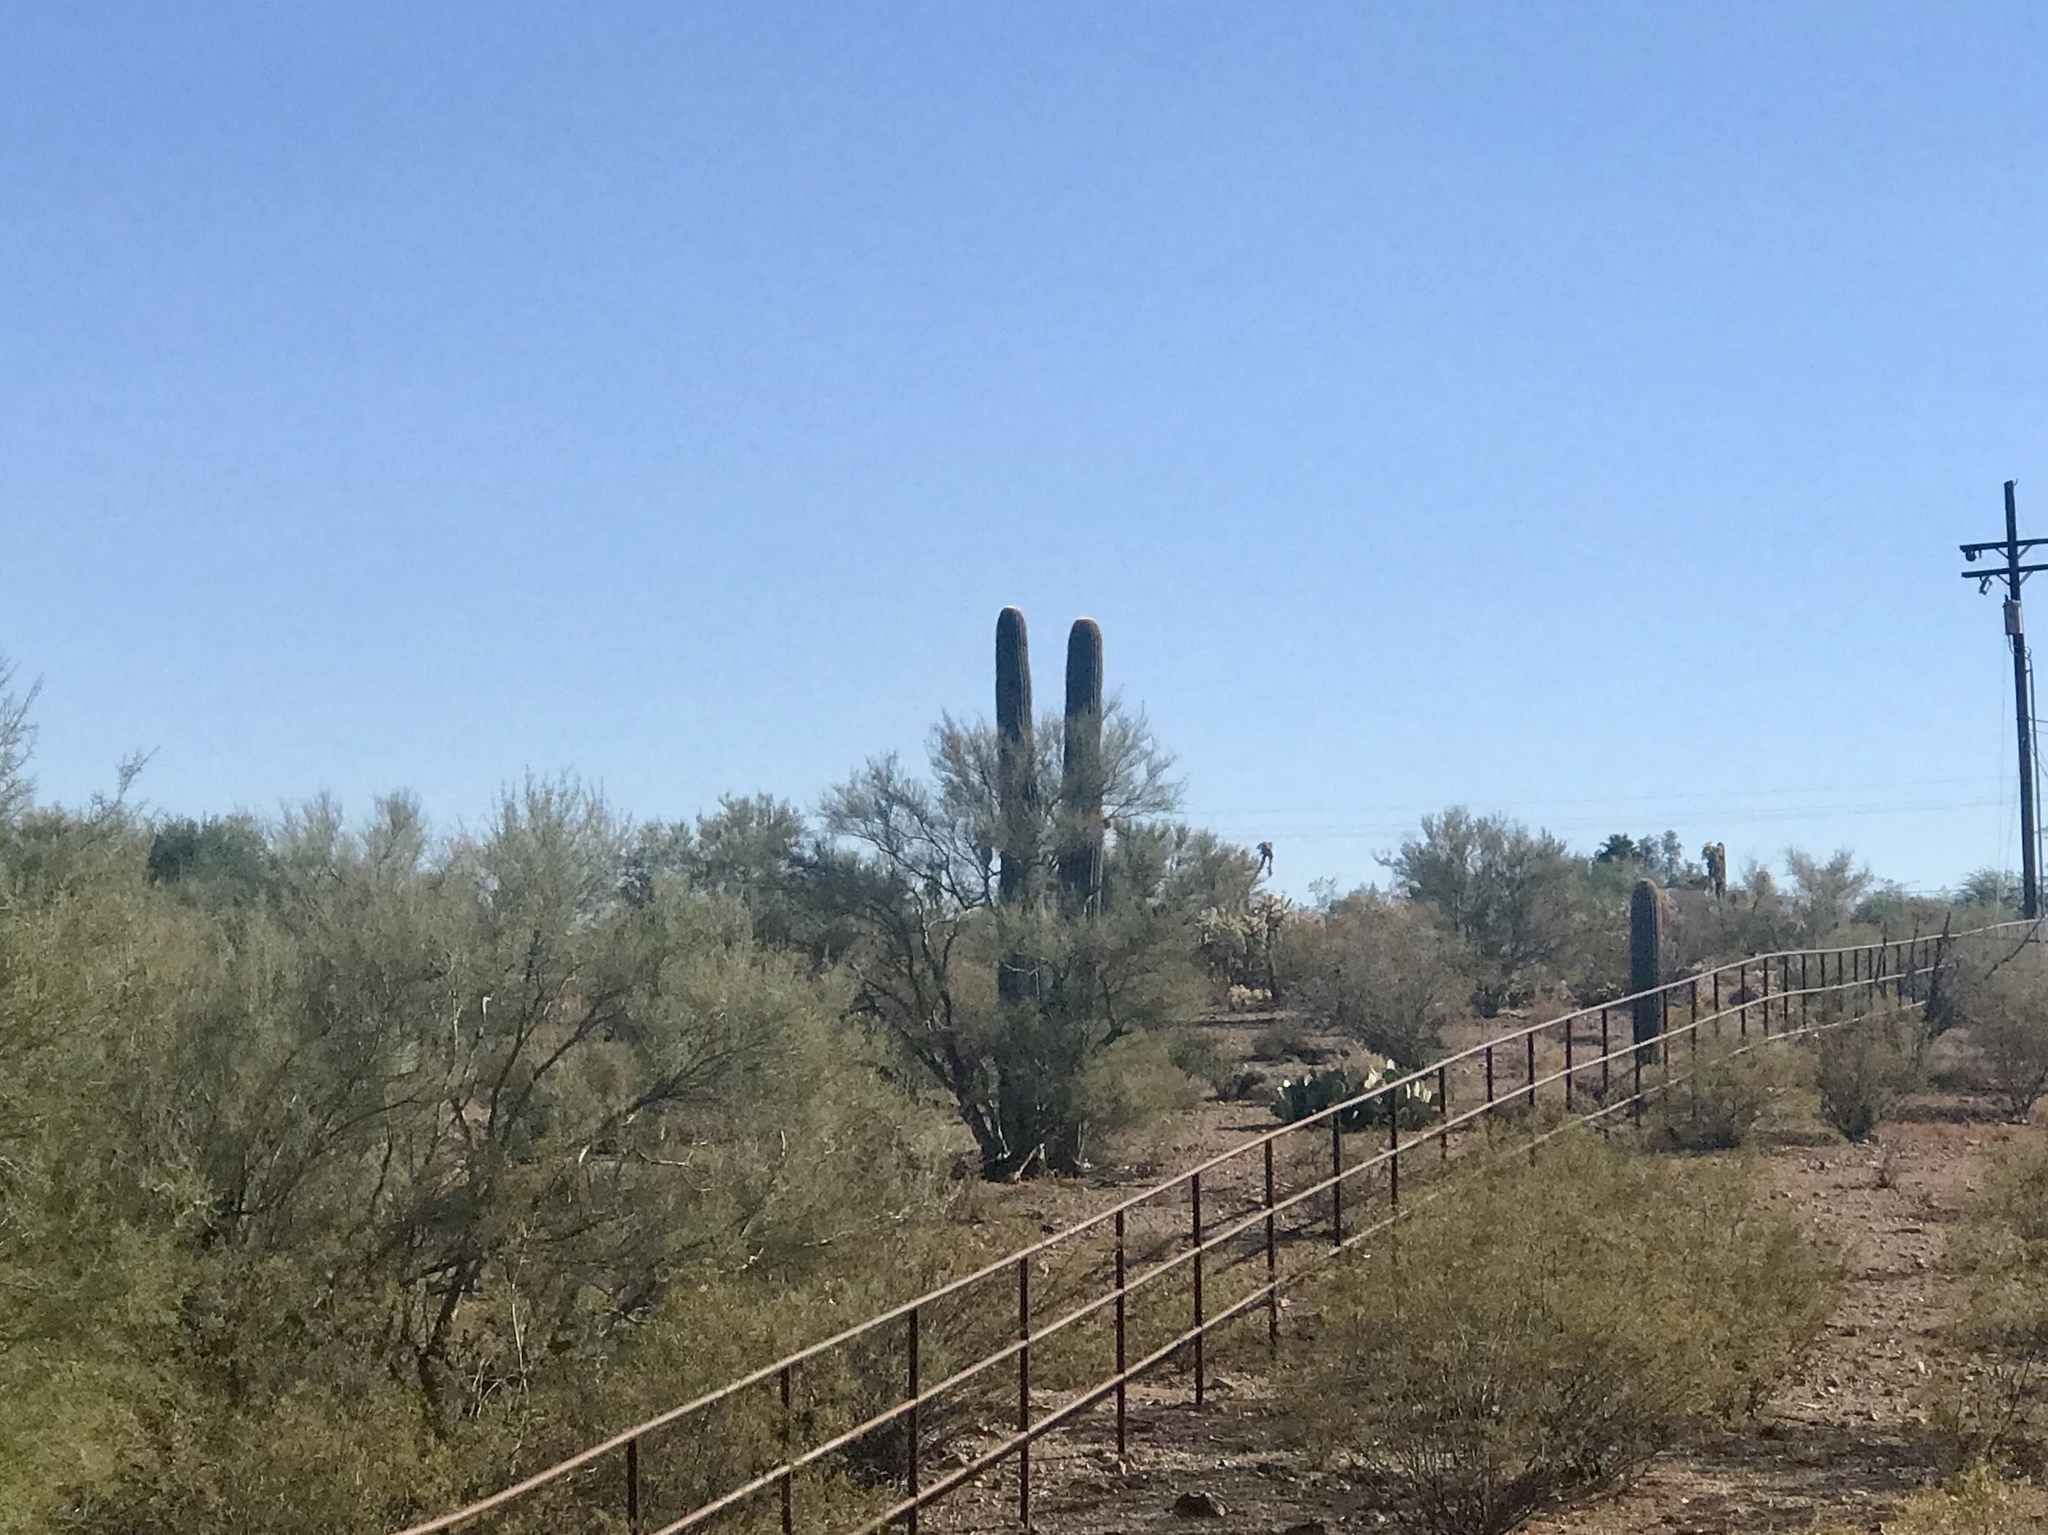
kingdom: Plantae
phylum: Tracheophyta
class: Magnoliopsida
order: Caryophyllales
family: Cactaceae
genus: Carnegiea
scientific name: Carnegiea gigantea
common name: Saguaro
